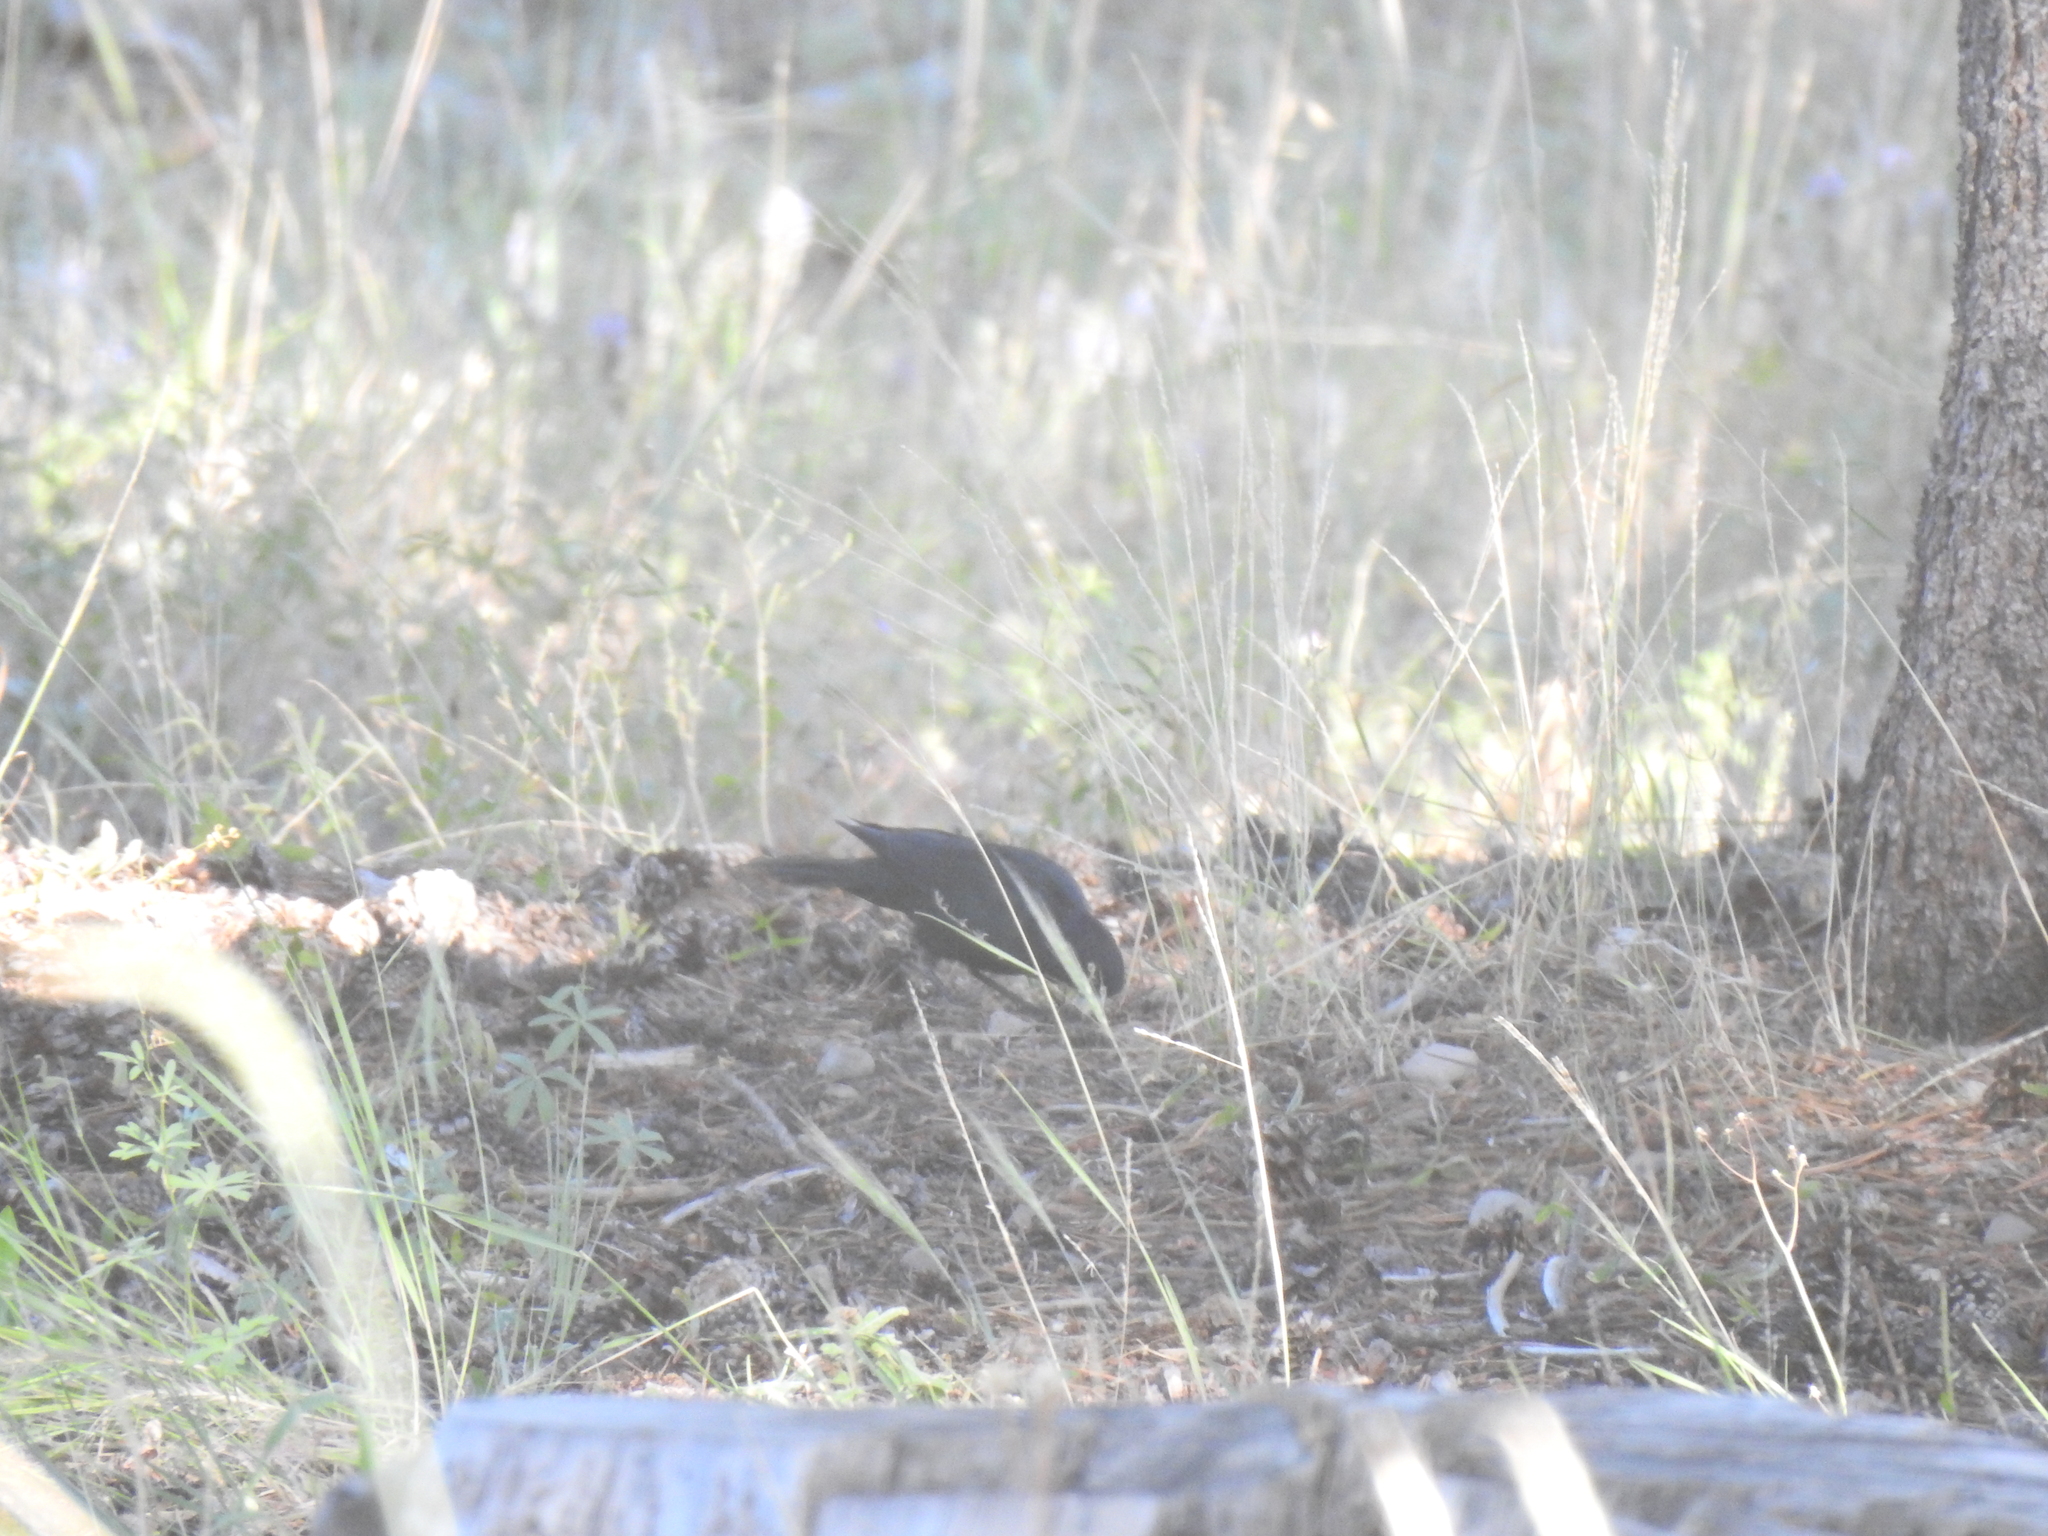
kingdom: Animalia
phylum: Chordata
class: Aves
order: Passeriformes
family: Icteridae
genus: Euphagus
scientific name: Euphagus cyanocephalus
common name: Brewer's blackbird
